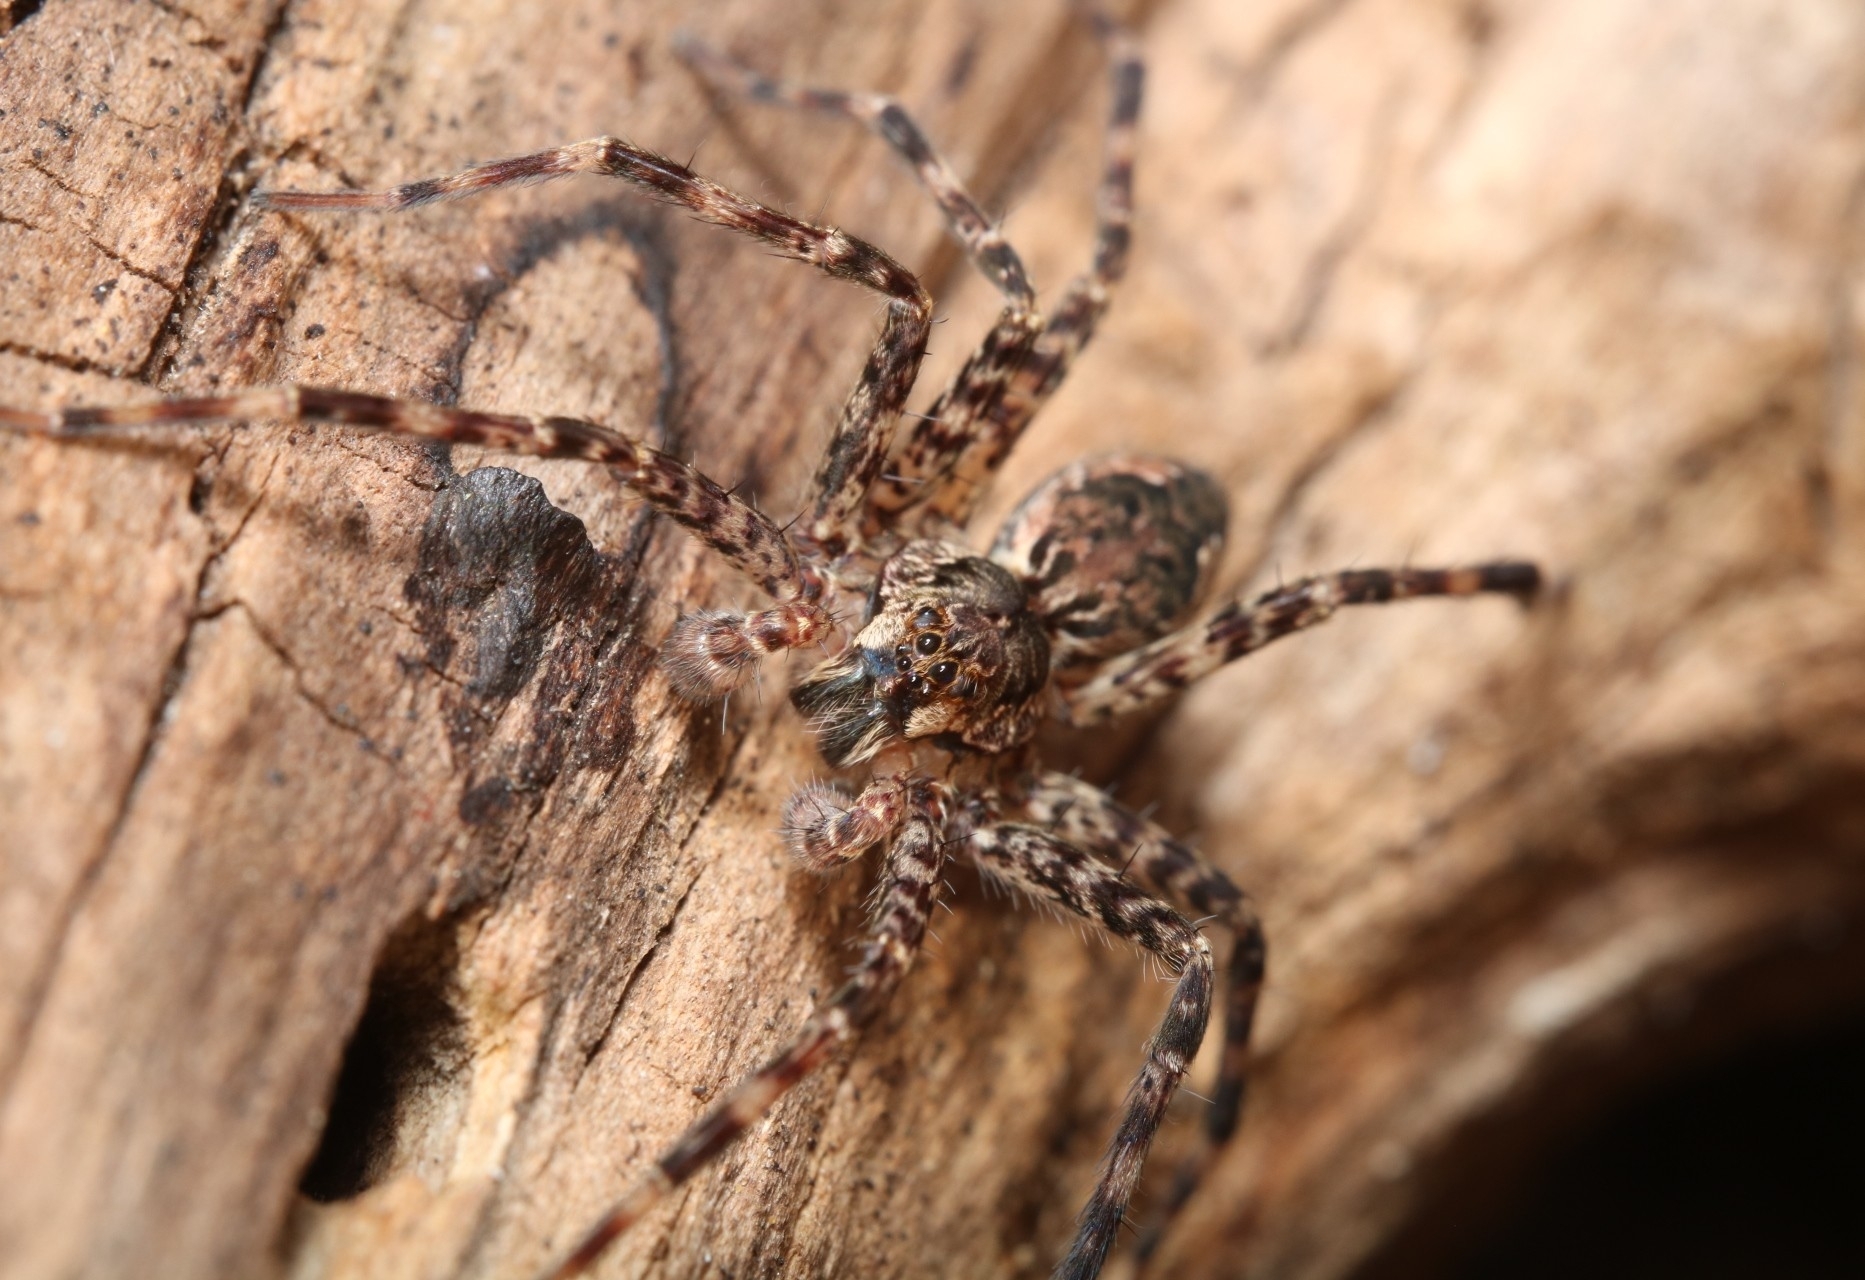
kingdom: Animalia
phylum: Arthropoda
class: Arachnida
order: Araneae
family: Pisauridae
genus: Dolomedes
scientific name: Dolomedes tenebrosus
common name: Dark fishing spider
